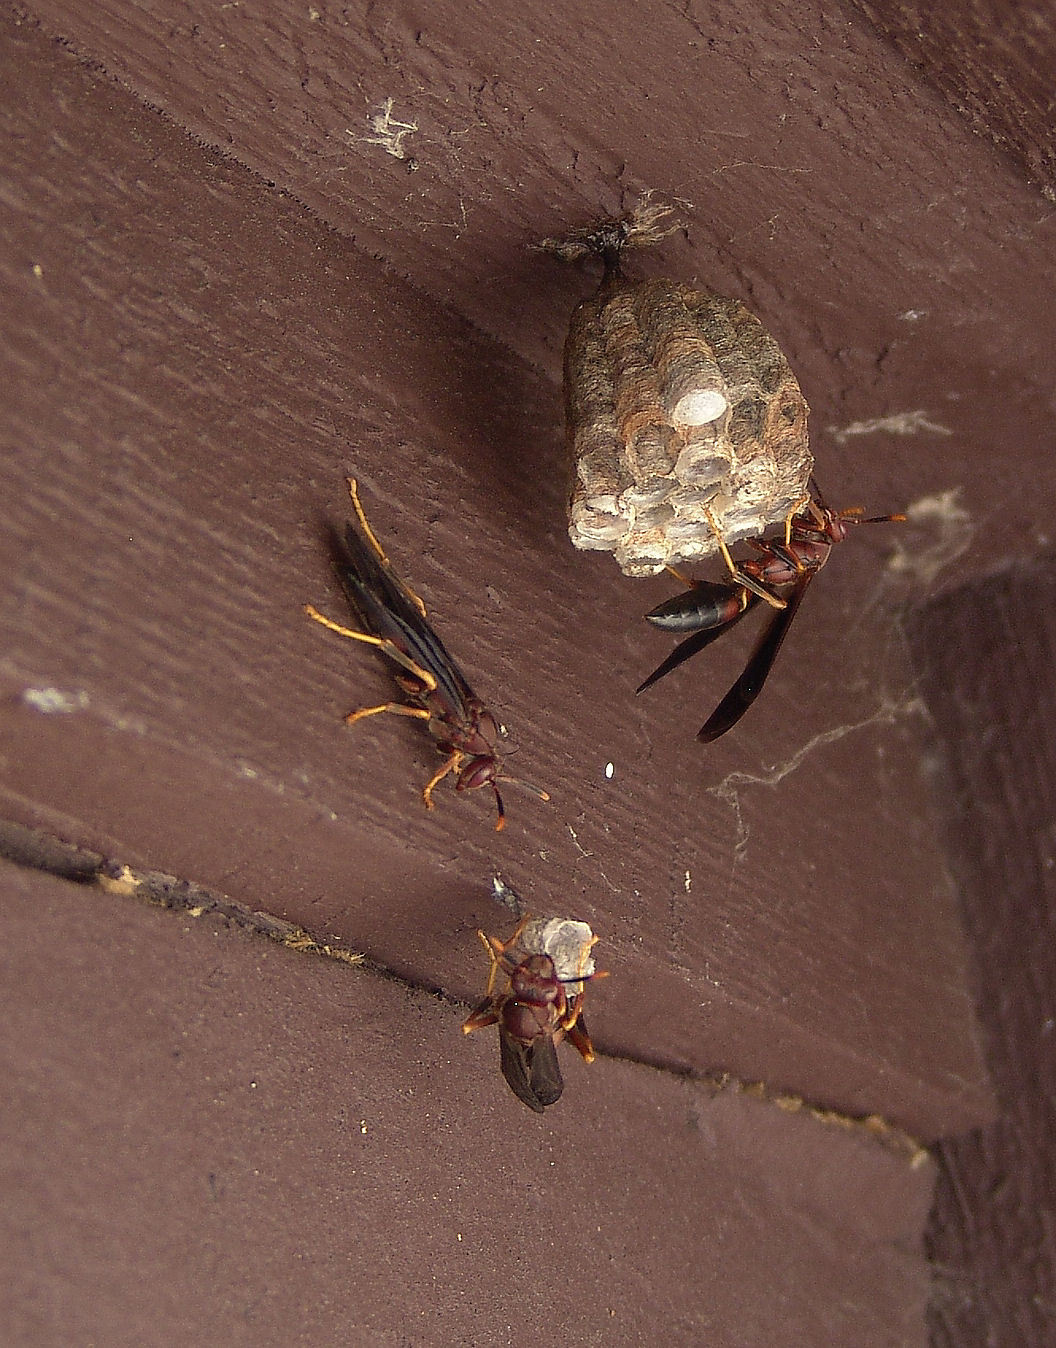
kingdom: Animalia
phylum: Arthropoda
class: Insecta
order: Hymenoptera
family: Eumenidae
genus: Polistes
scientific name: Polistes annularis
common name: Ringed paper wasp
